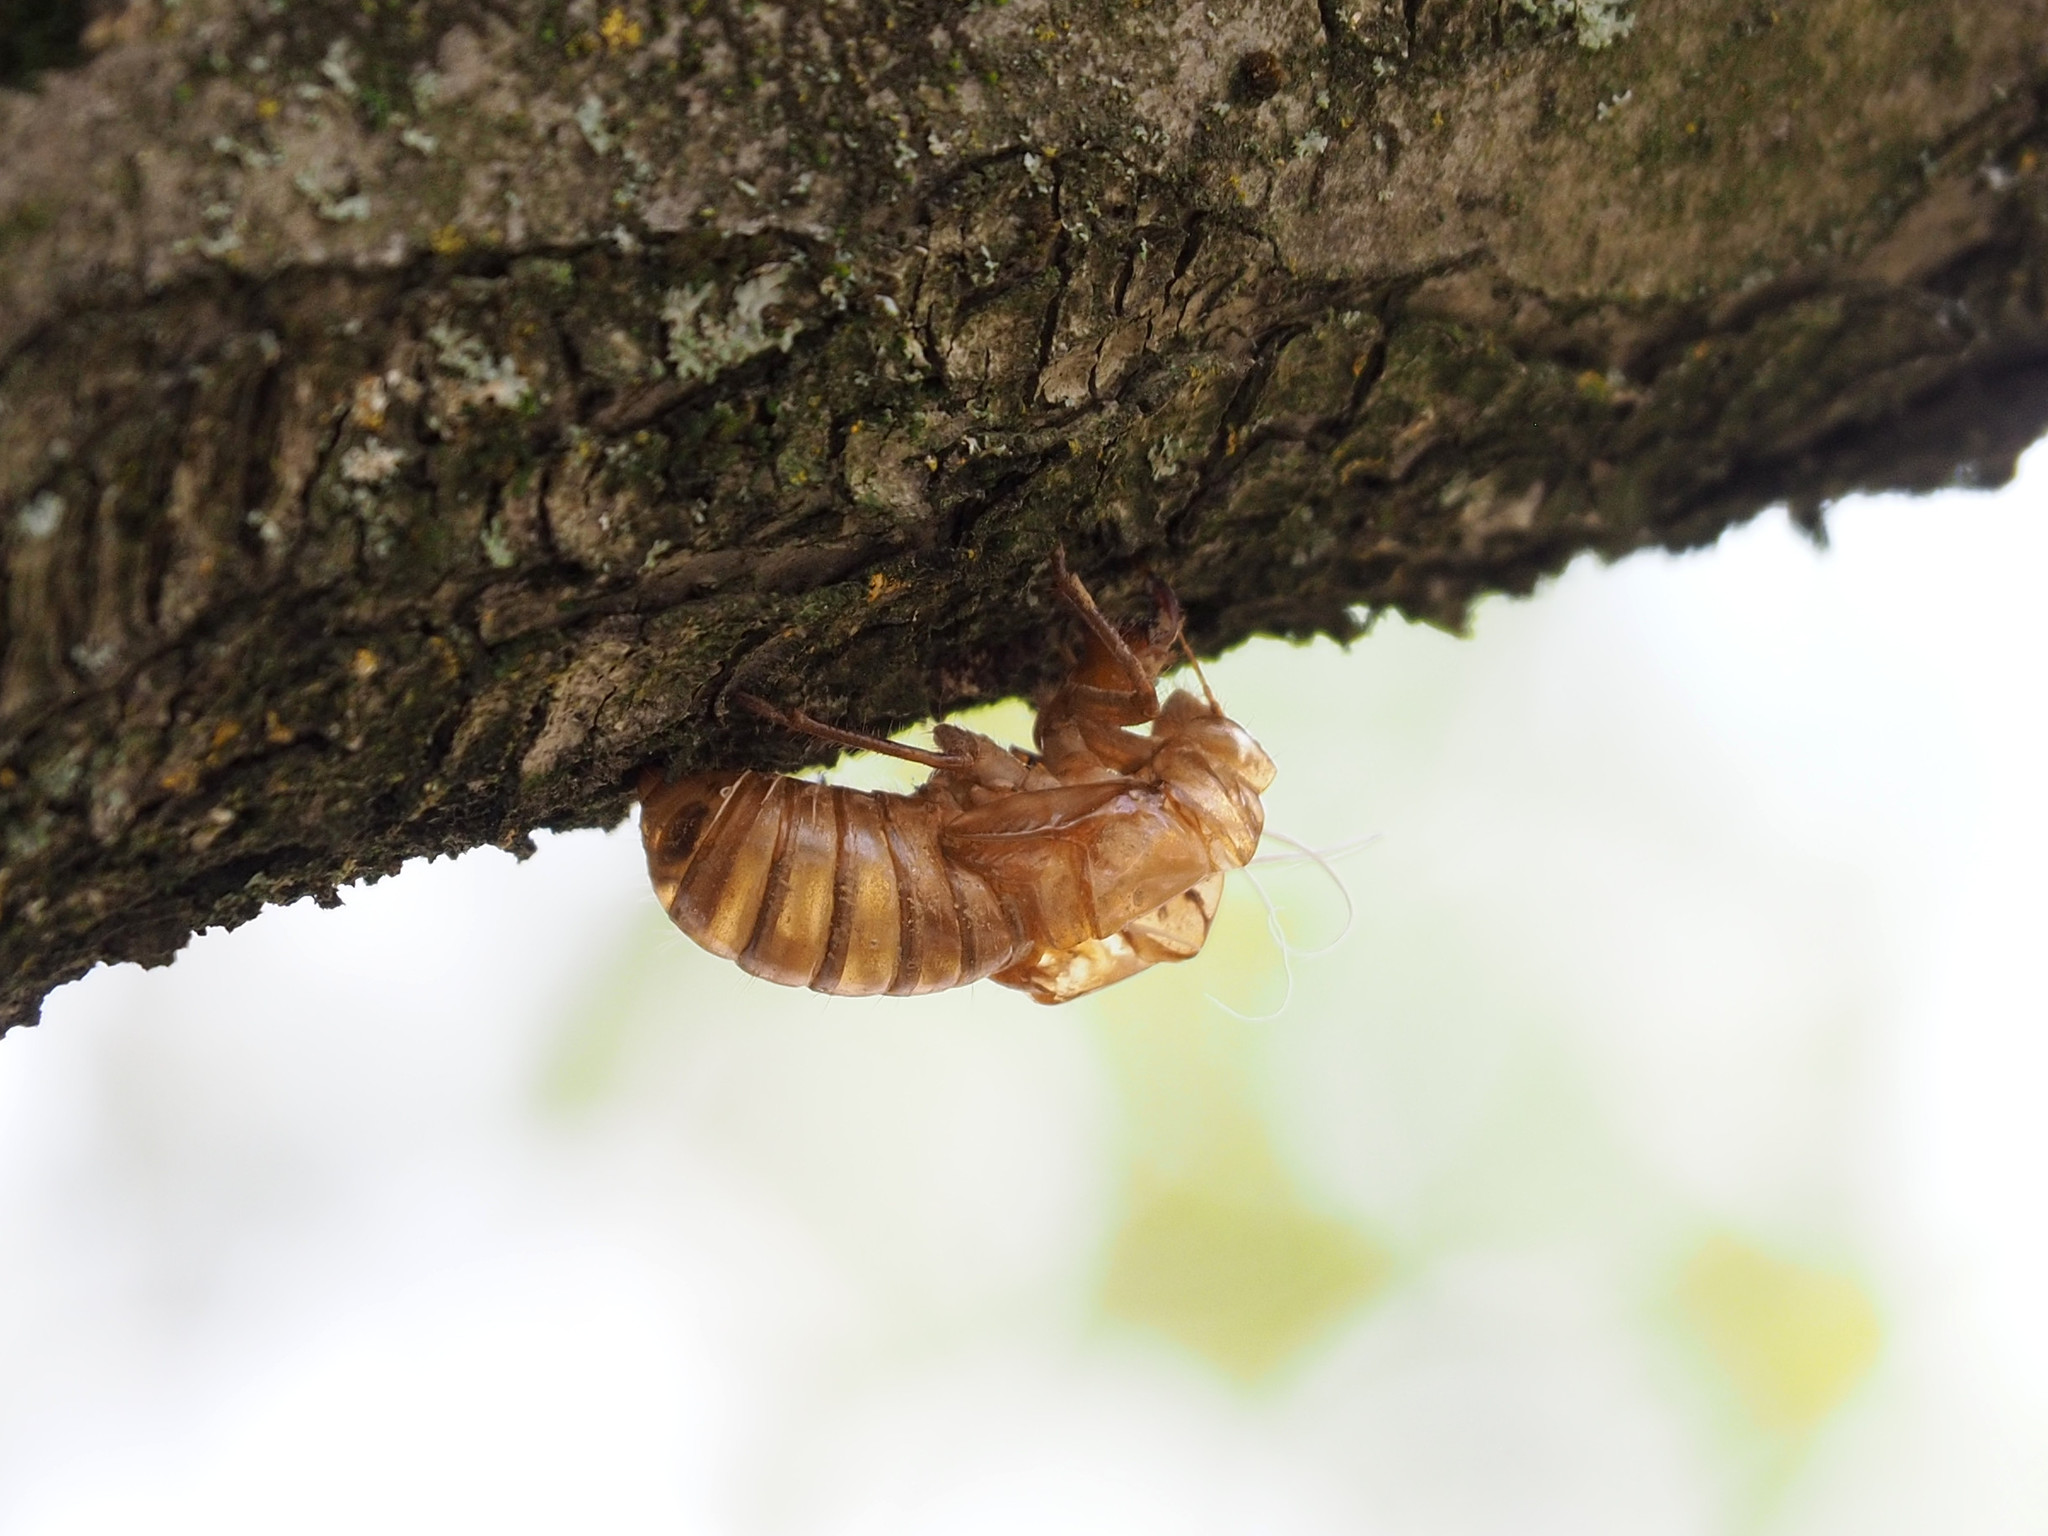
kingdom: Animalia
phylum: Arthropoda
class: Insecta
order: Hemiptera
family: Cicadidae
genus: Magicicada
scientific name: Magicicada
